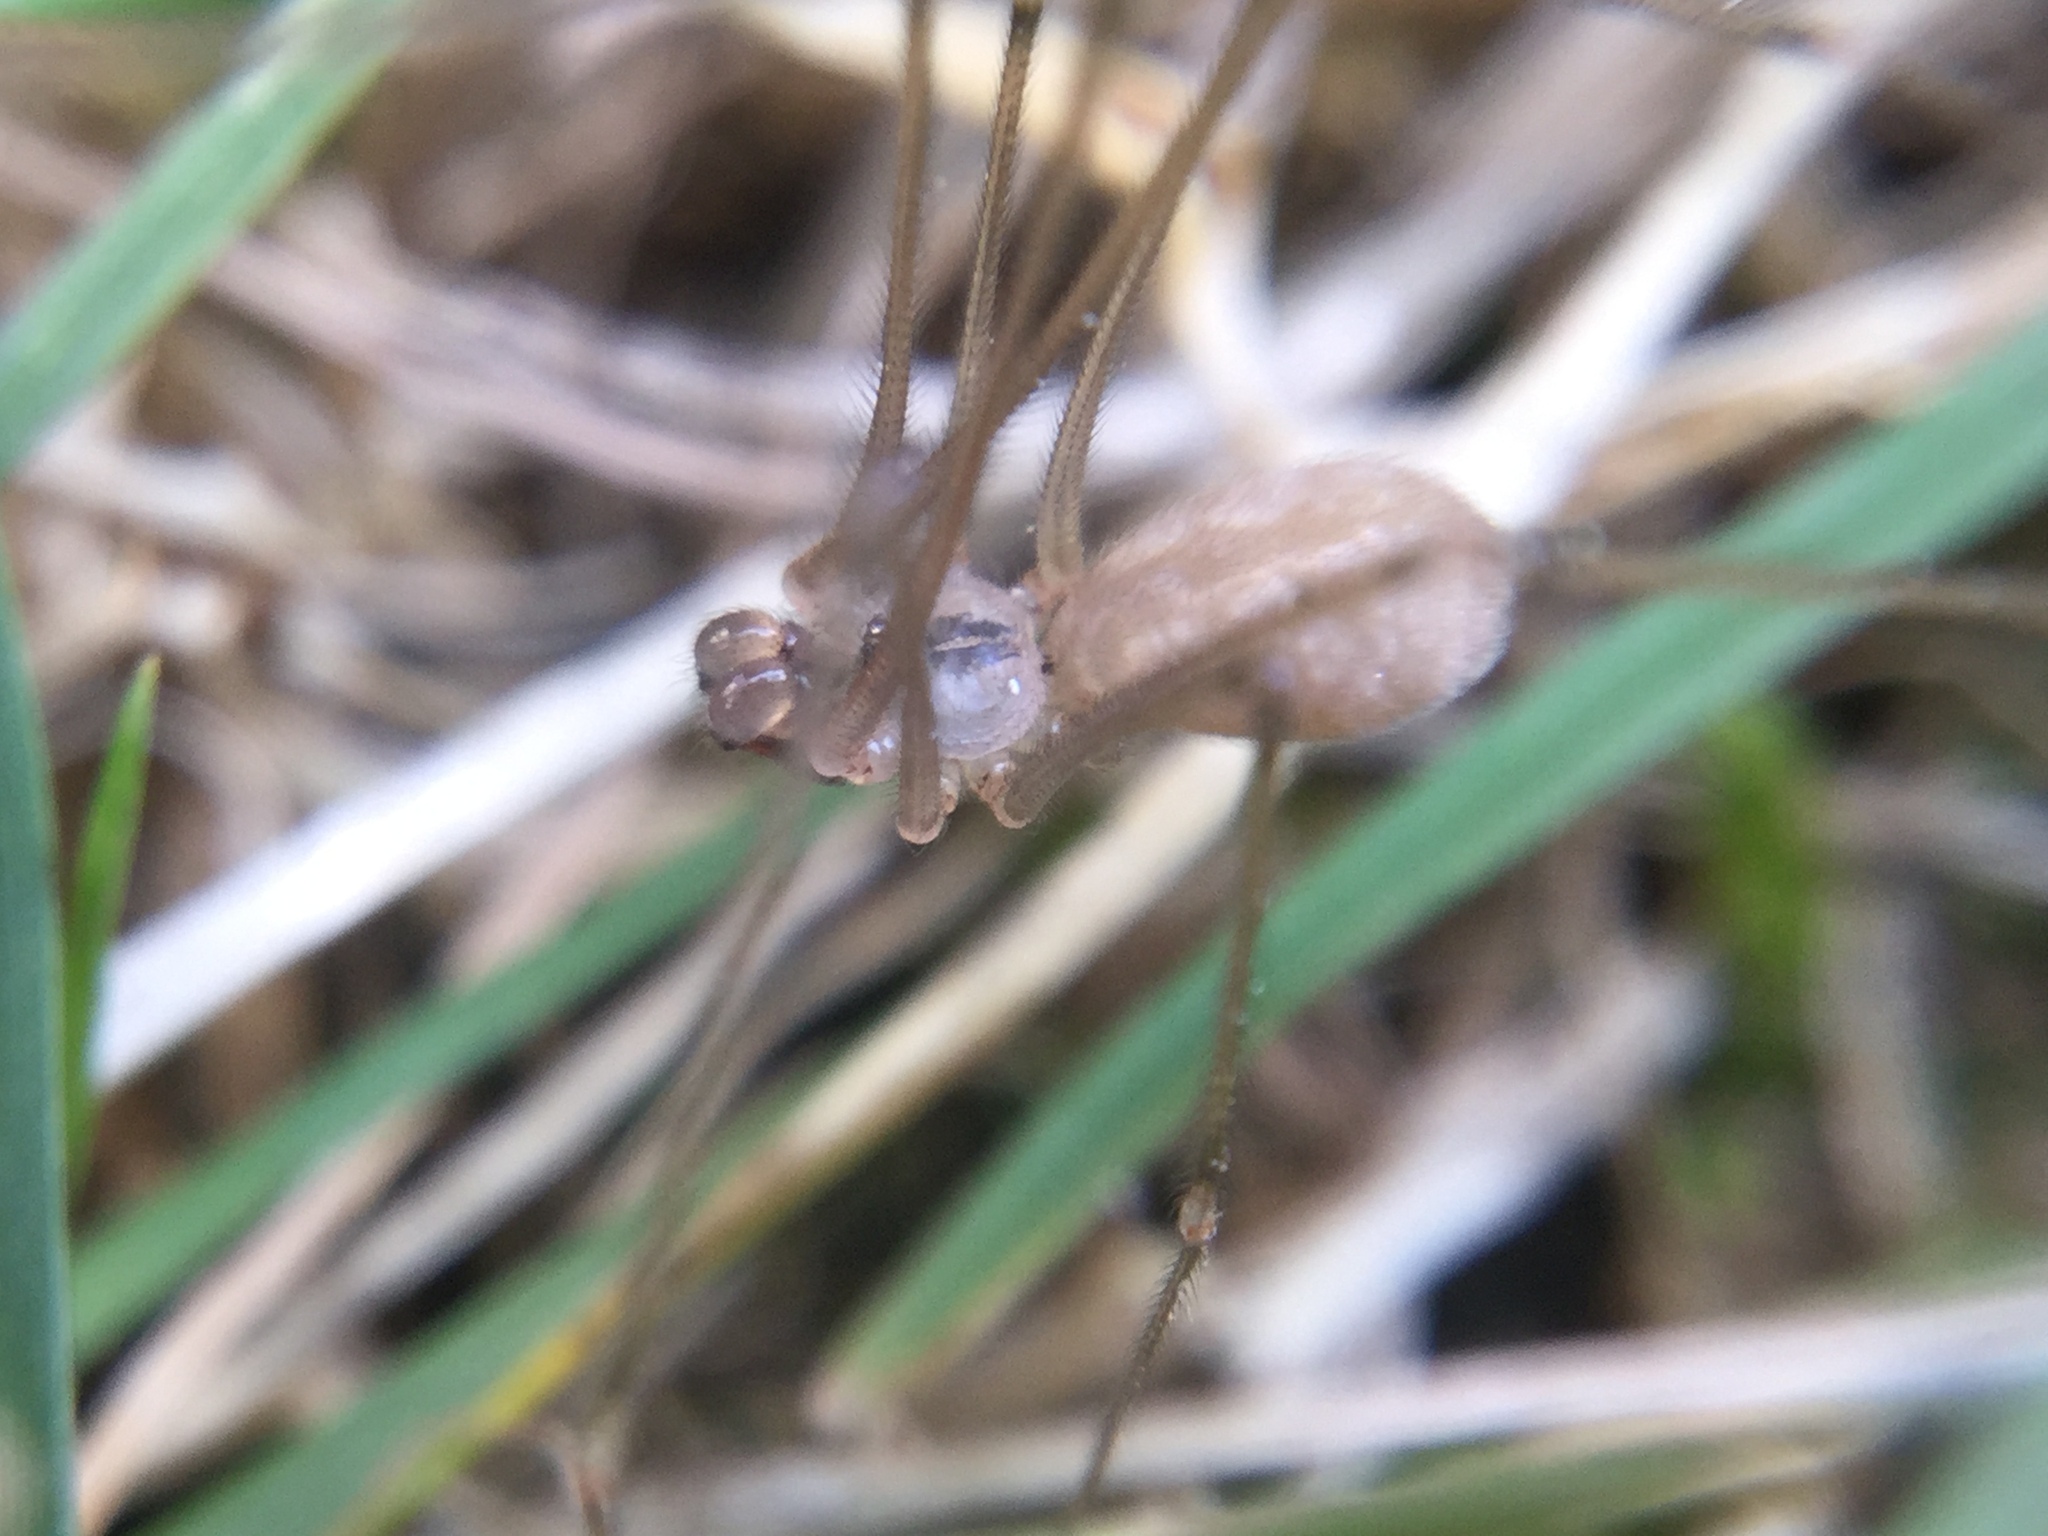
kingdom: Animalia
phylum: Arthropoda
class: Arachnida
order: Araneae
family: Pholcidae
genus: Pholcus
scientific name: Pholcus manueli
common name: Cellar spider
